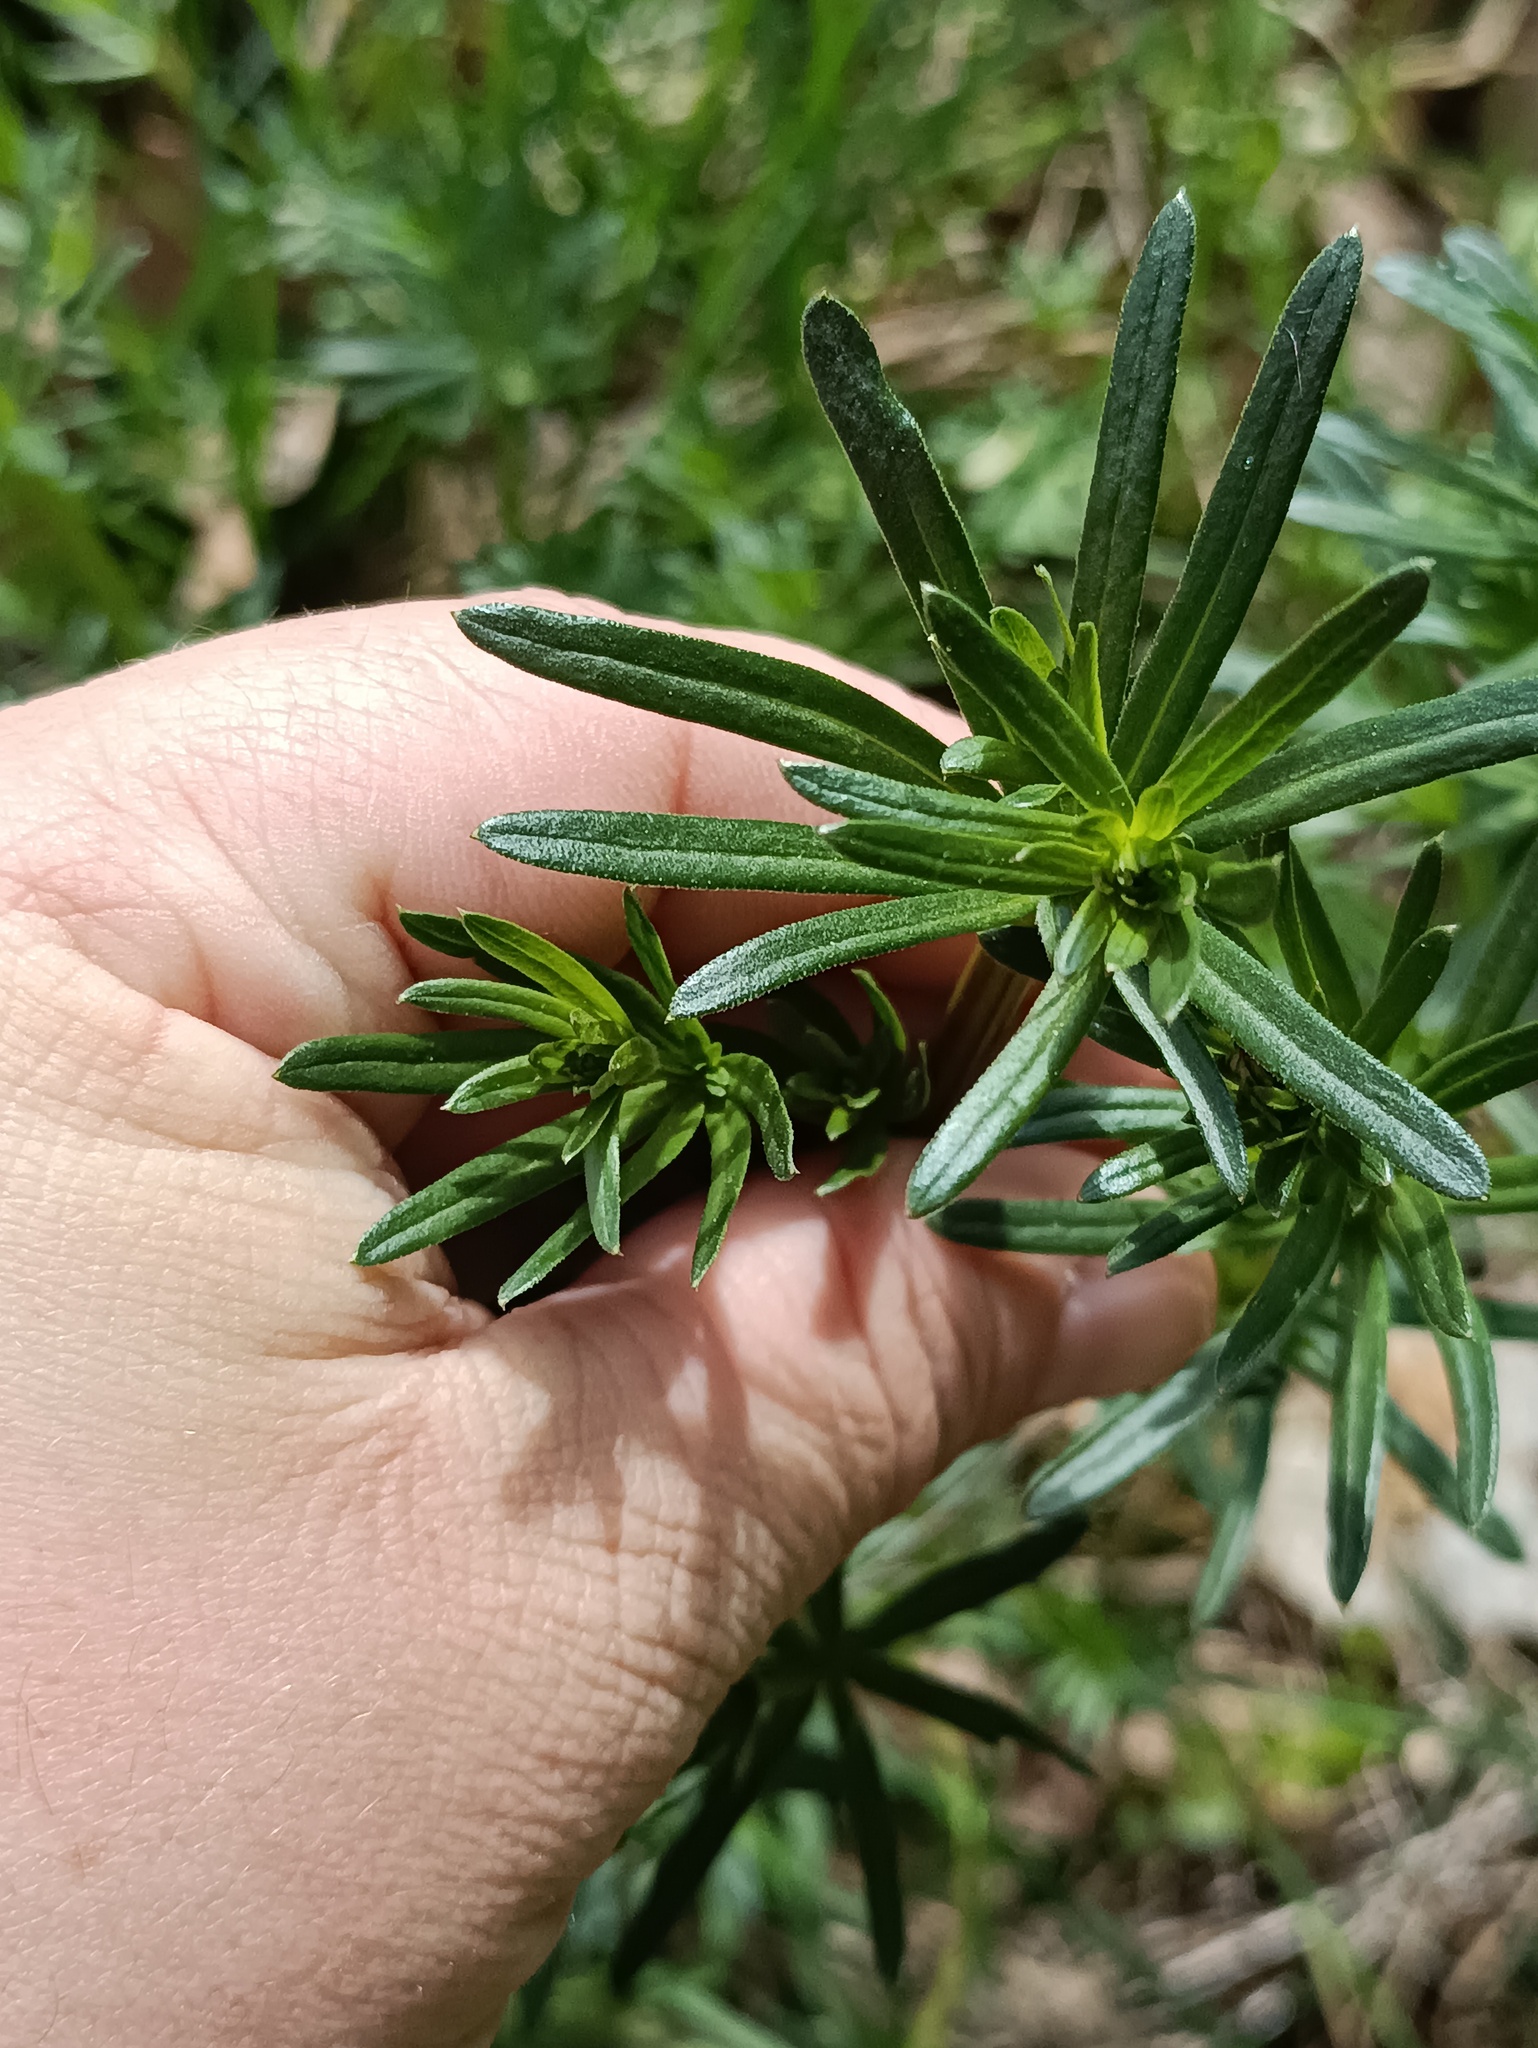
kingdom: Plantae
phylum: Tracheophyta
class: Magnoliopsida
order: Gentianales
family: Rubiaceae
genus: Galium
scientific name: Galium mollugo
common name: Hedge bedstraw
